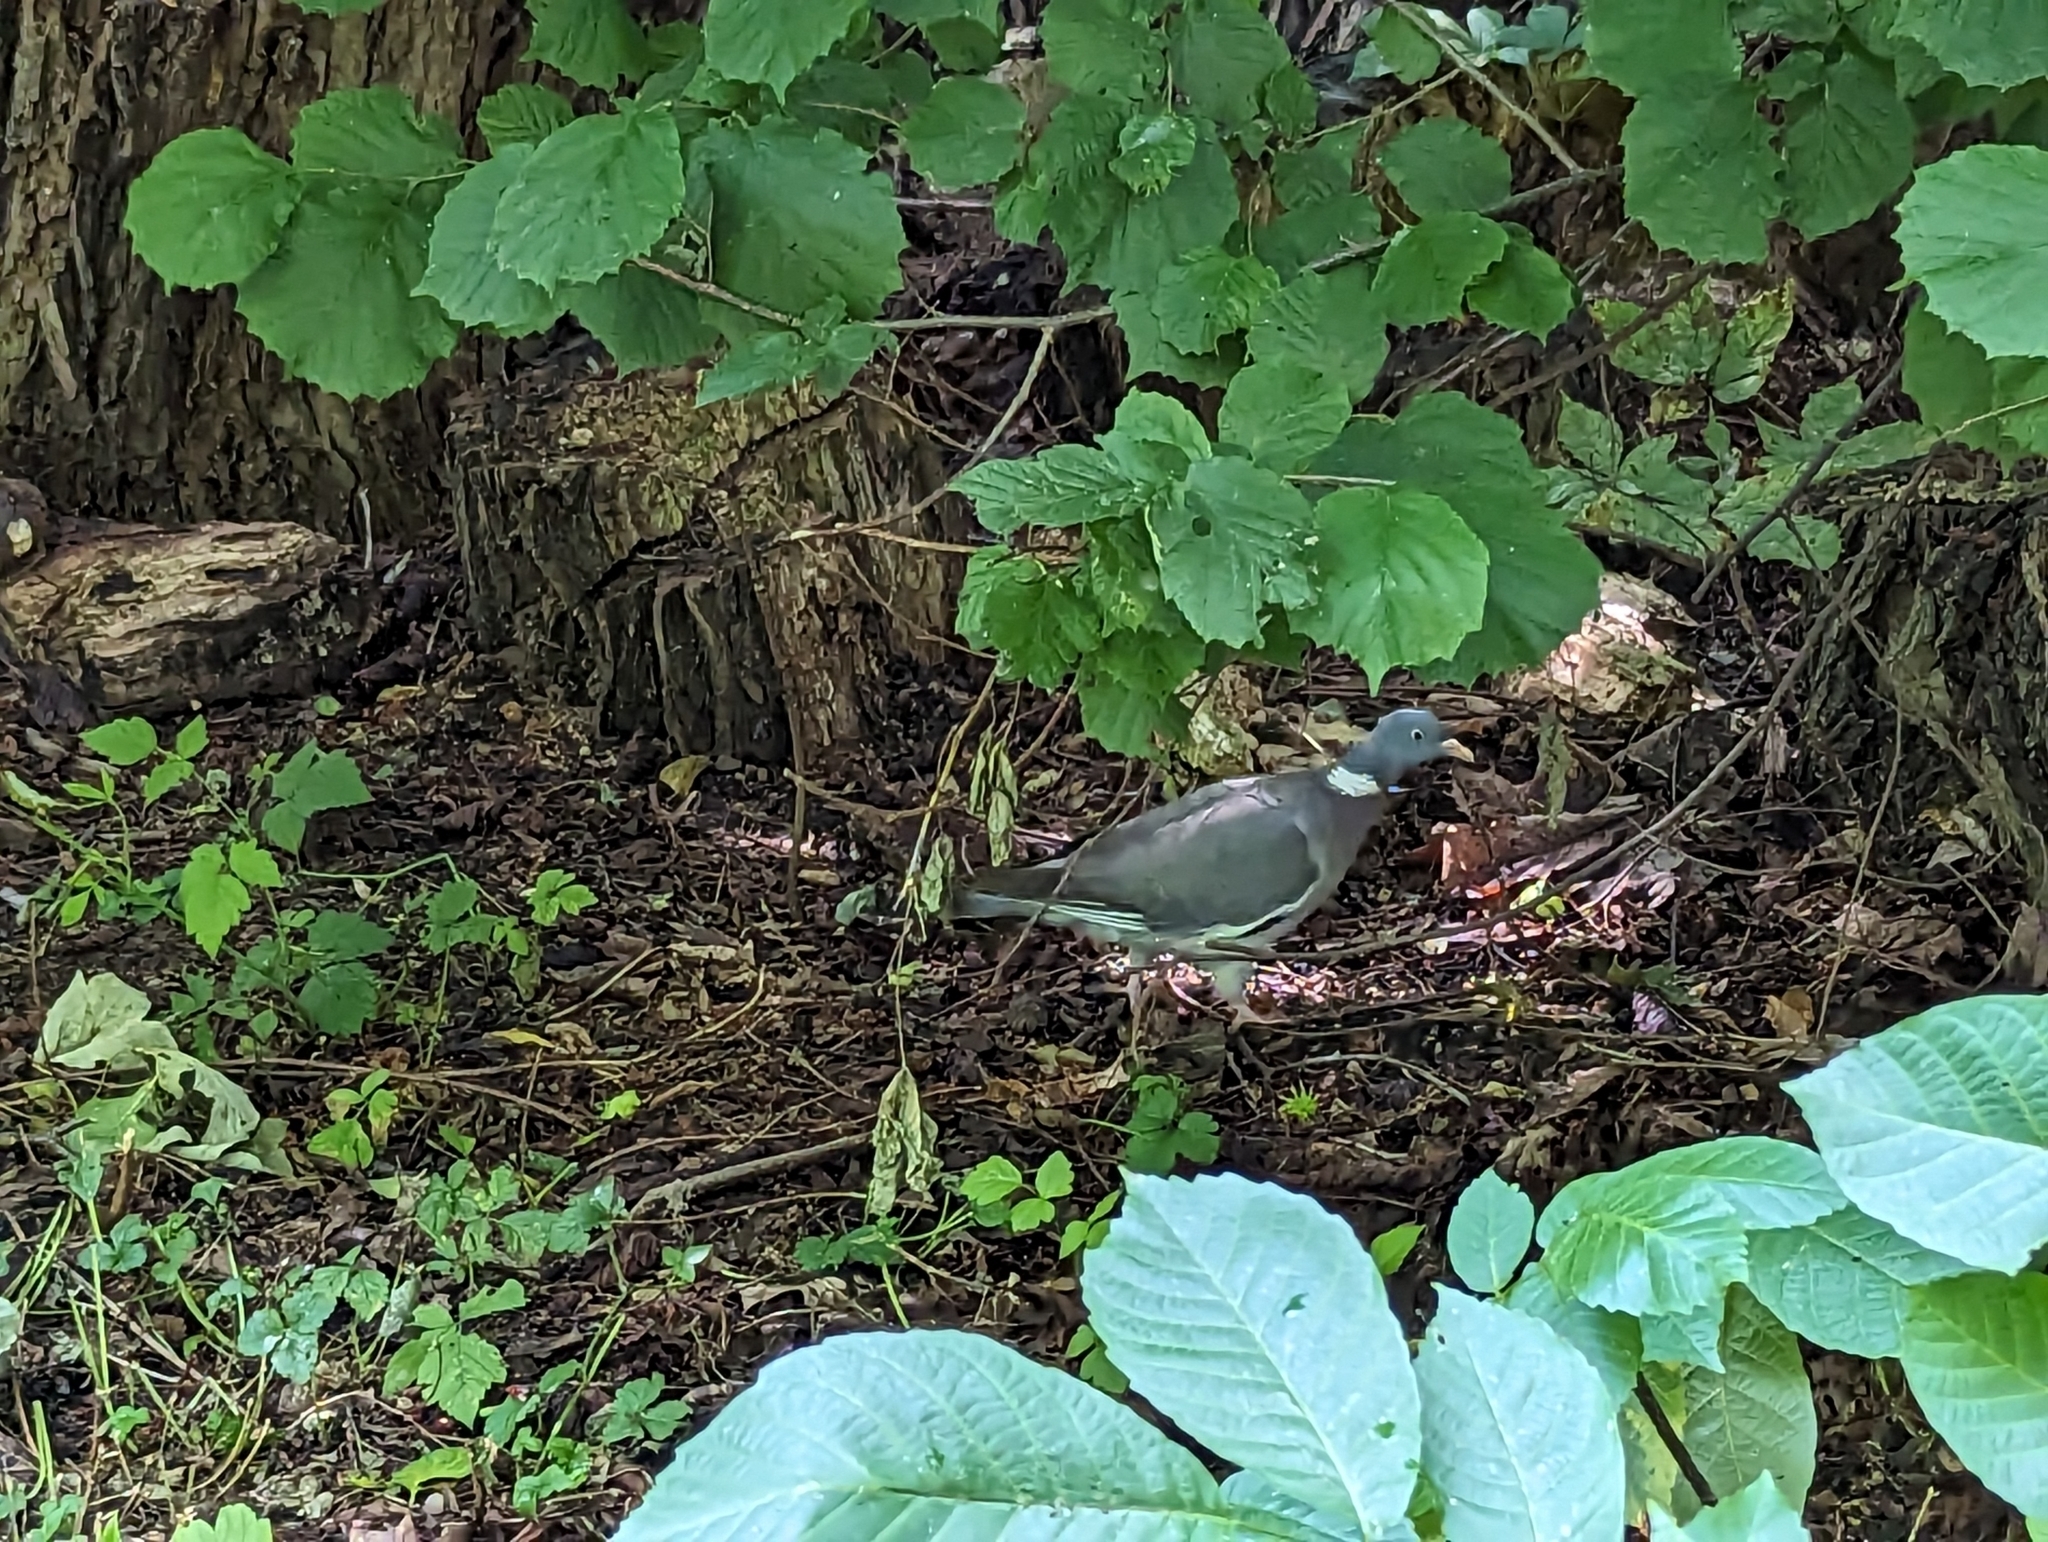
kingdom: Animalia
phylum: Chordata
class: Aves
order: Columbiformes
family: Columbidae
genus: Columba
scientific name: Columba palumbus
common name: Common wood pigeon
